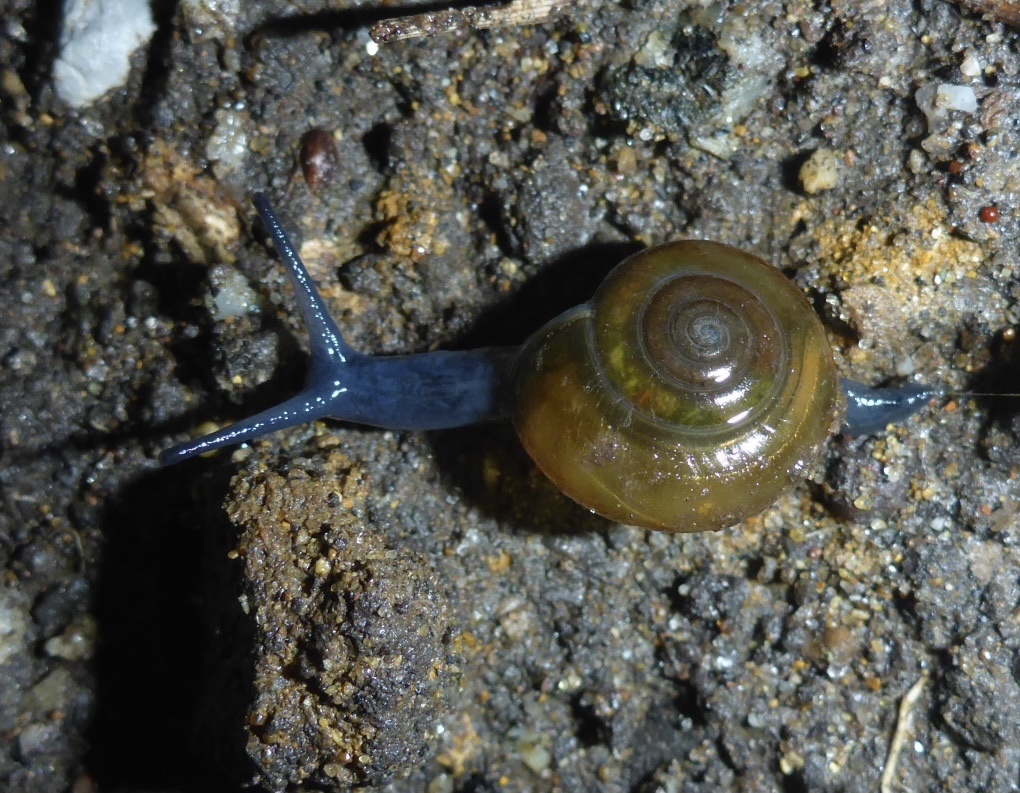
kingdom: Animalia
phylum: Mollusca
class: Gastropoda
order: Stylommatophora
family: Oxychilidae
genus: Oxychilus
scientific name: Oxychilus draparnaudi
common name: Draparnaud's glass snail
